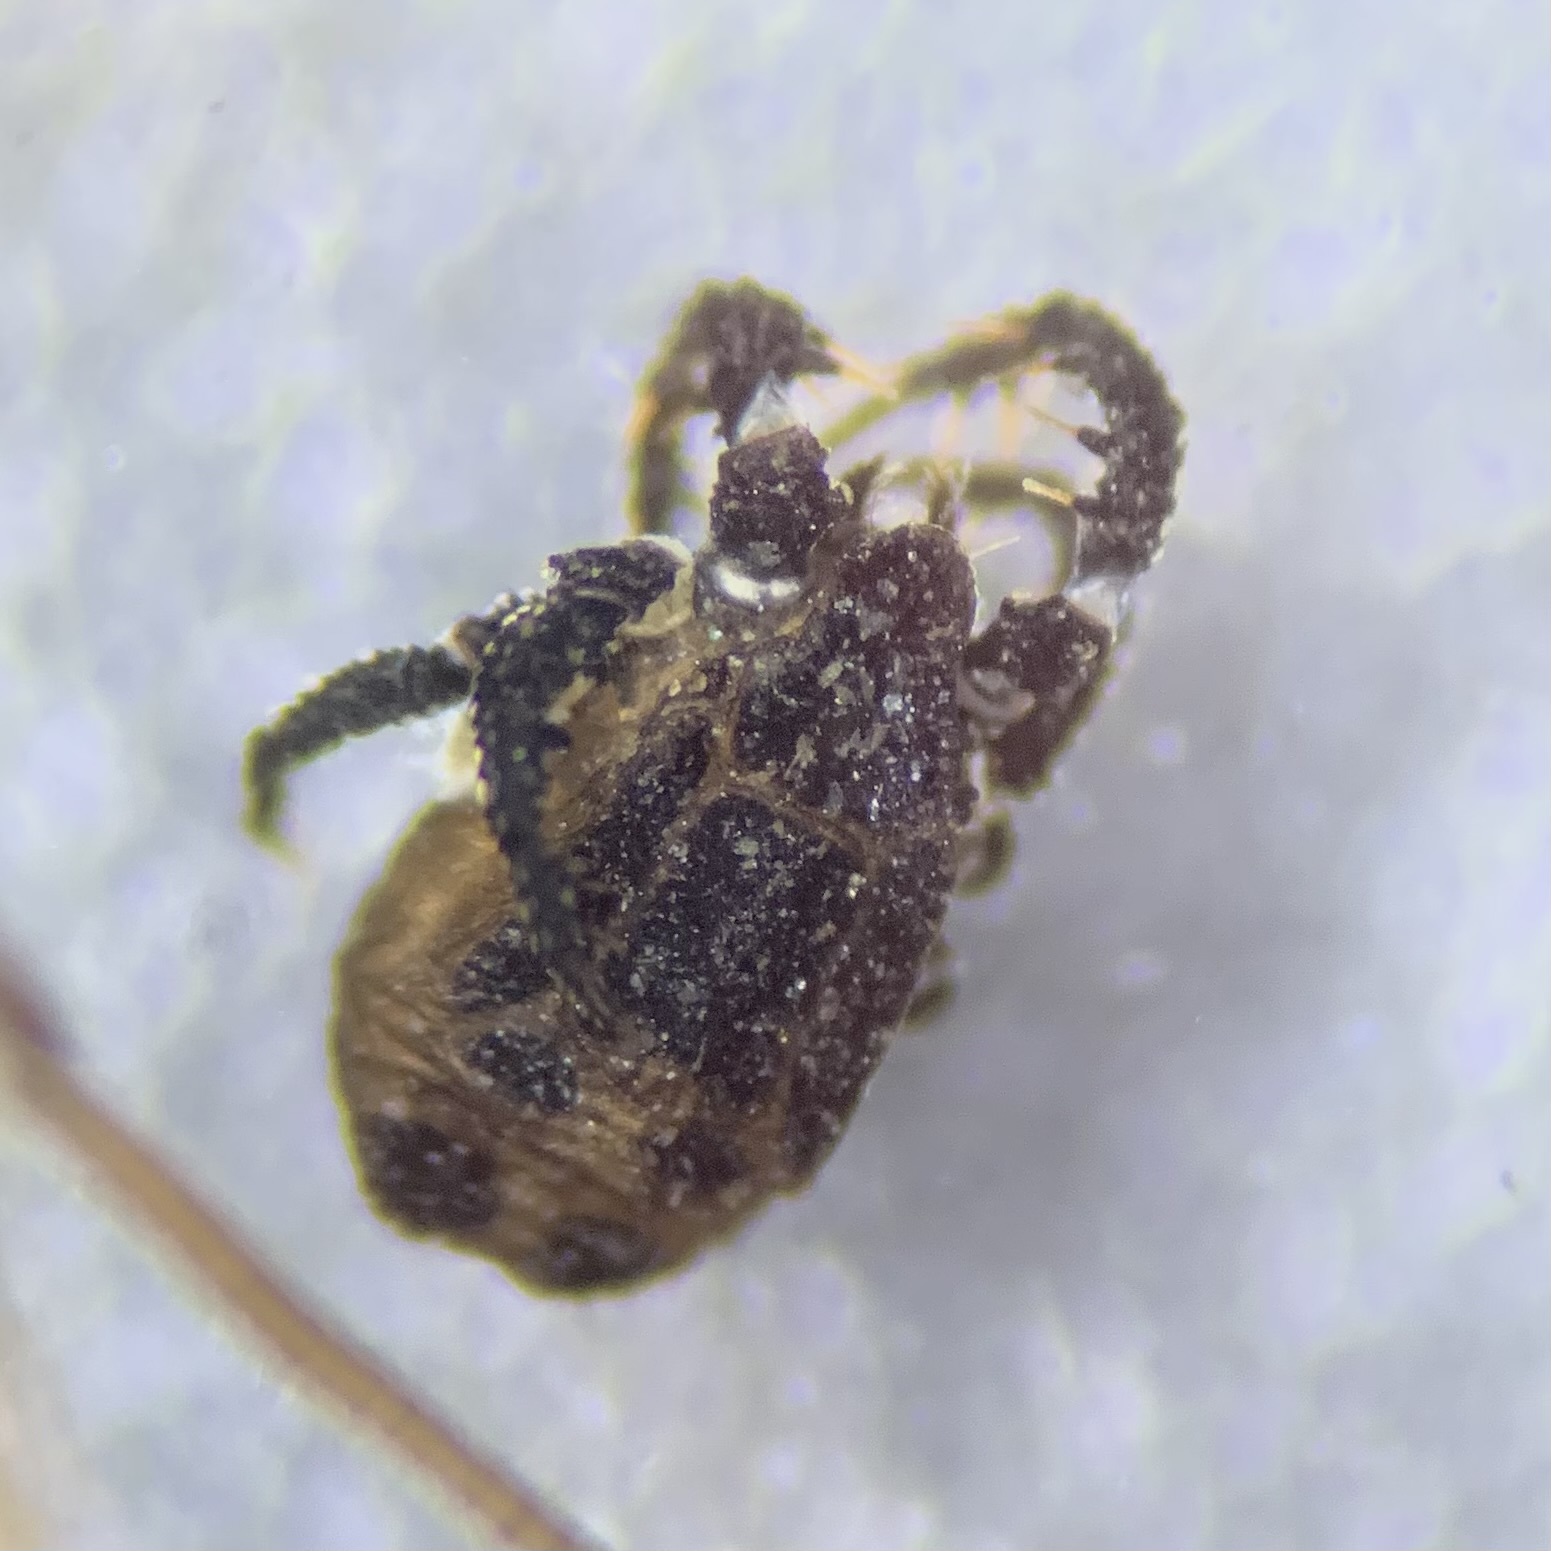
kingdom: Animalia
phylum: Arthropoda
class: Arachnida
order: Trombidiformes
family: Caeculidae
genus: Caeculus
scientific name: Caeculus echinipes
